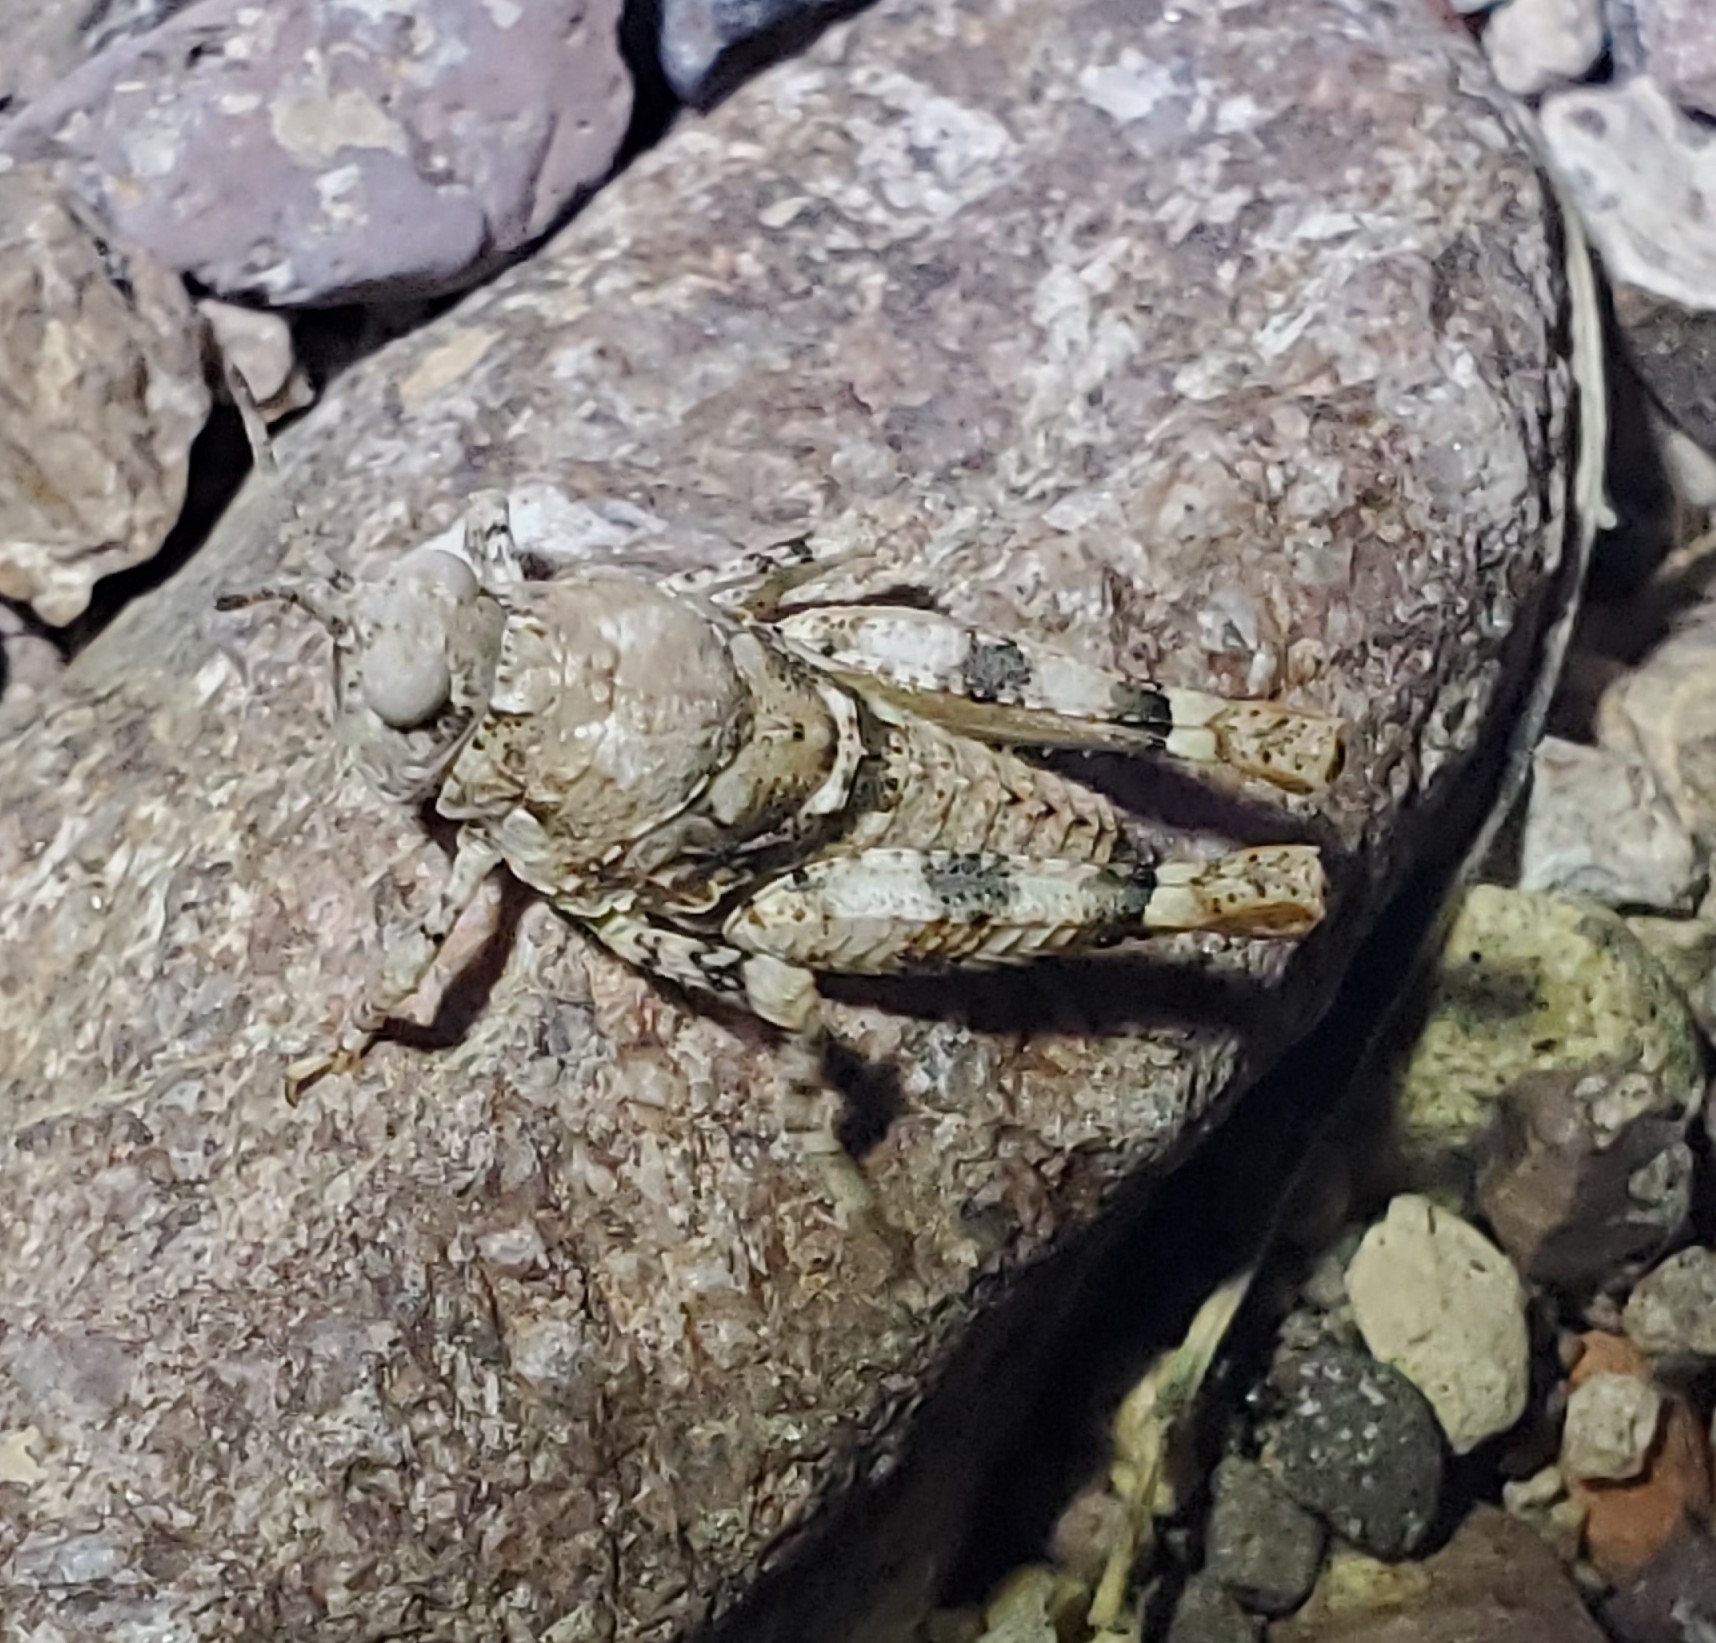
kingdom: Animalia
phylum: Arthropoda
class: Insecta
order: Orthoptera
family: Acrididae
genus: Cibolacris
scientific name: Cibolacris parviceps
